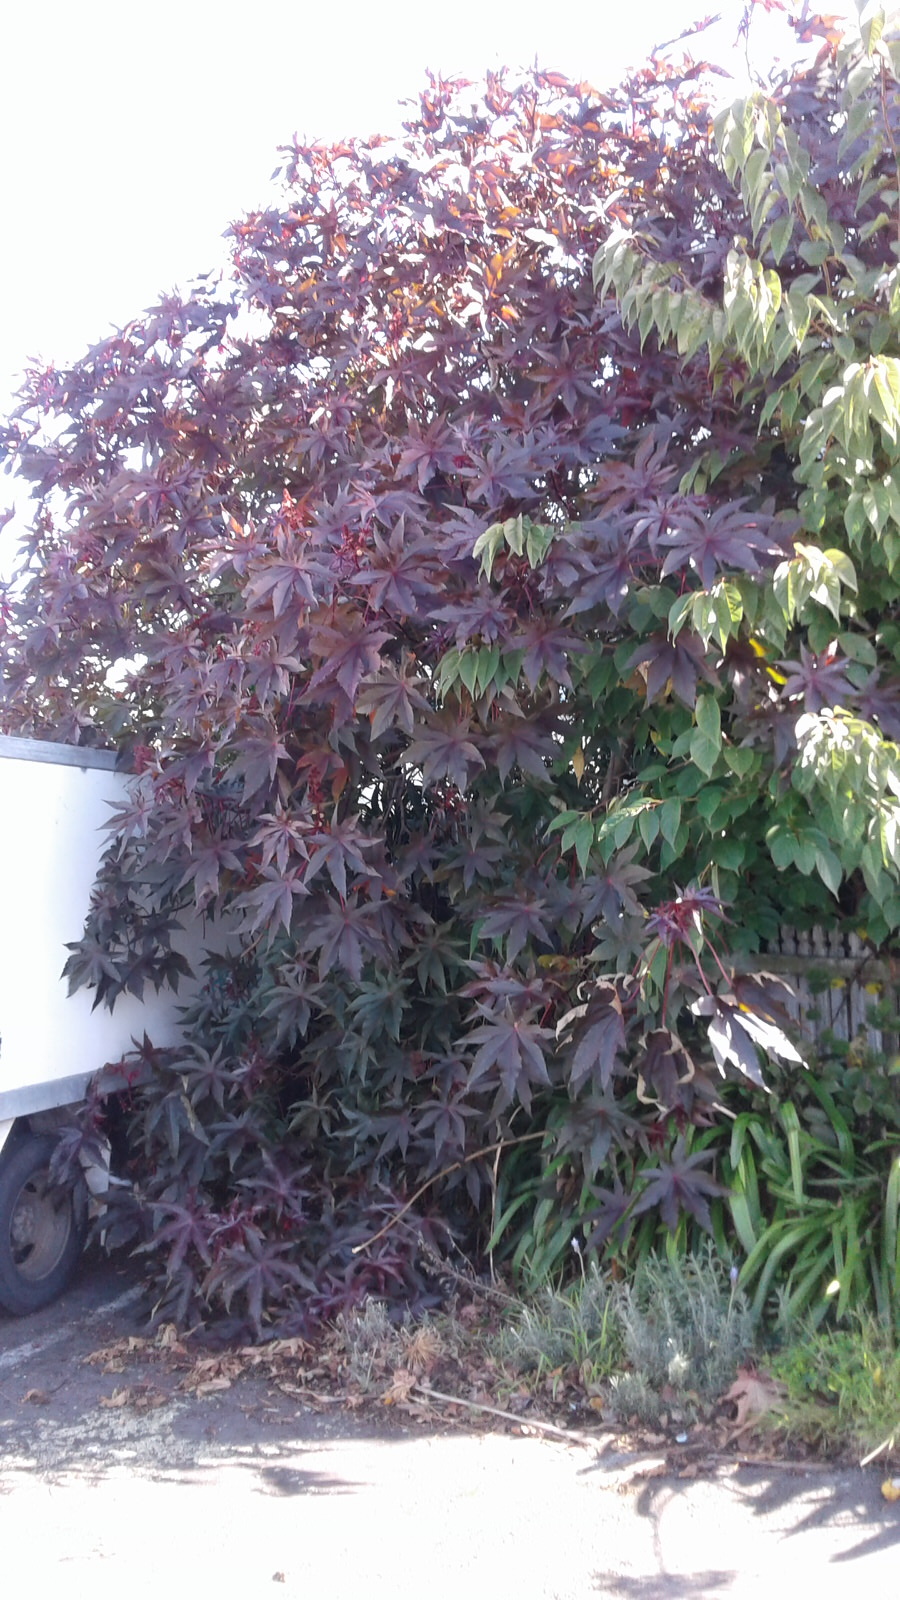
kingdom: Plantae
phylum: Tracheophyta
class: Magnoliopsida
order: Malpighiales
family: Euphorbiaceae
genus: Ricinus
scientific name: Ricinus communis
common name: Castor-oil-plant
